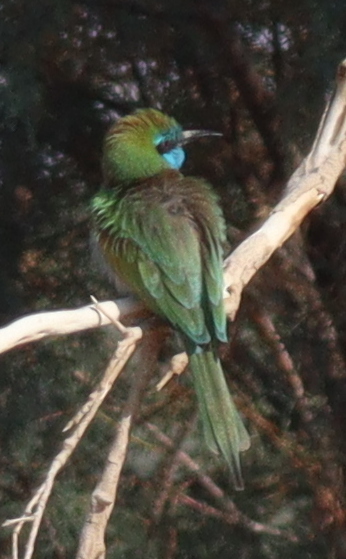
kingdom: Animalia
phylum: Chordata
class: Aves
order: Coraciiformes
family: Meropidae
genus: Merops
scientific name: Merops cyanophrys
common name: Arabian green bee-eater
